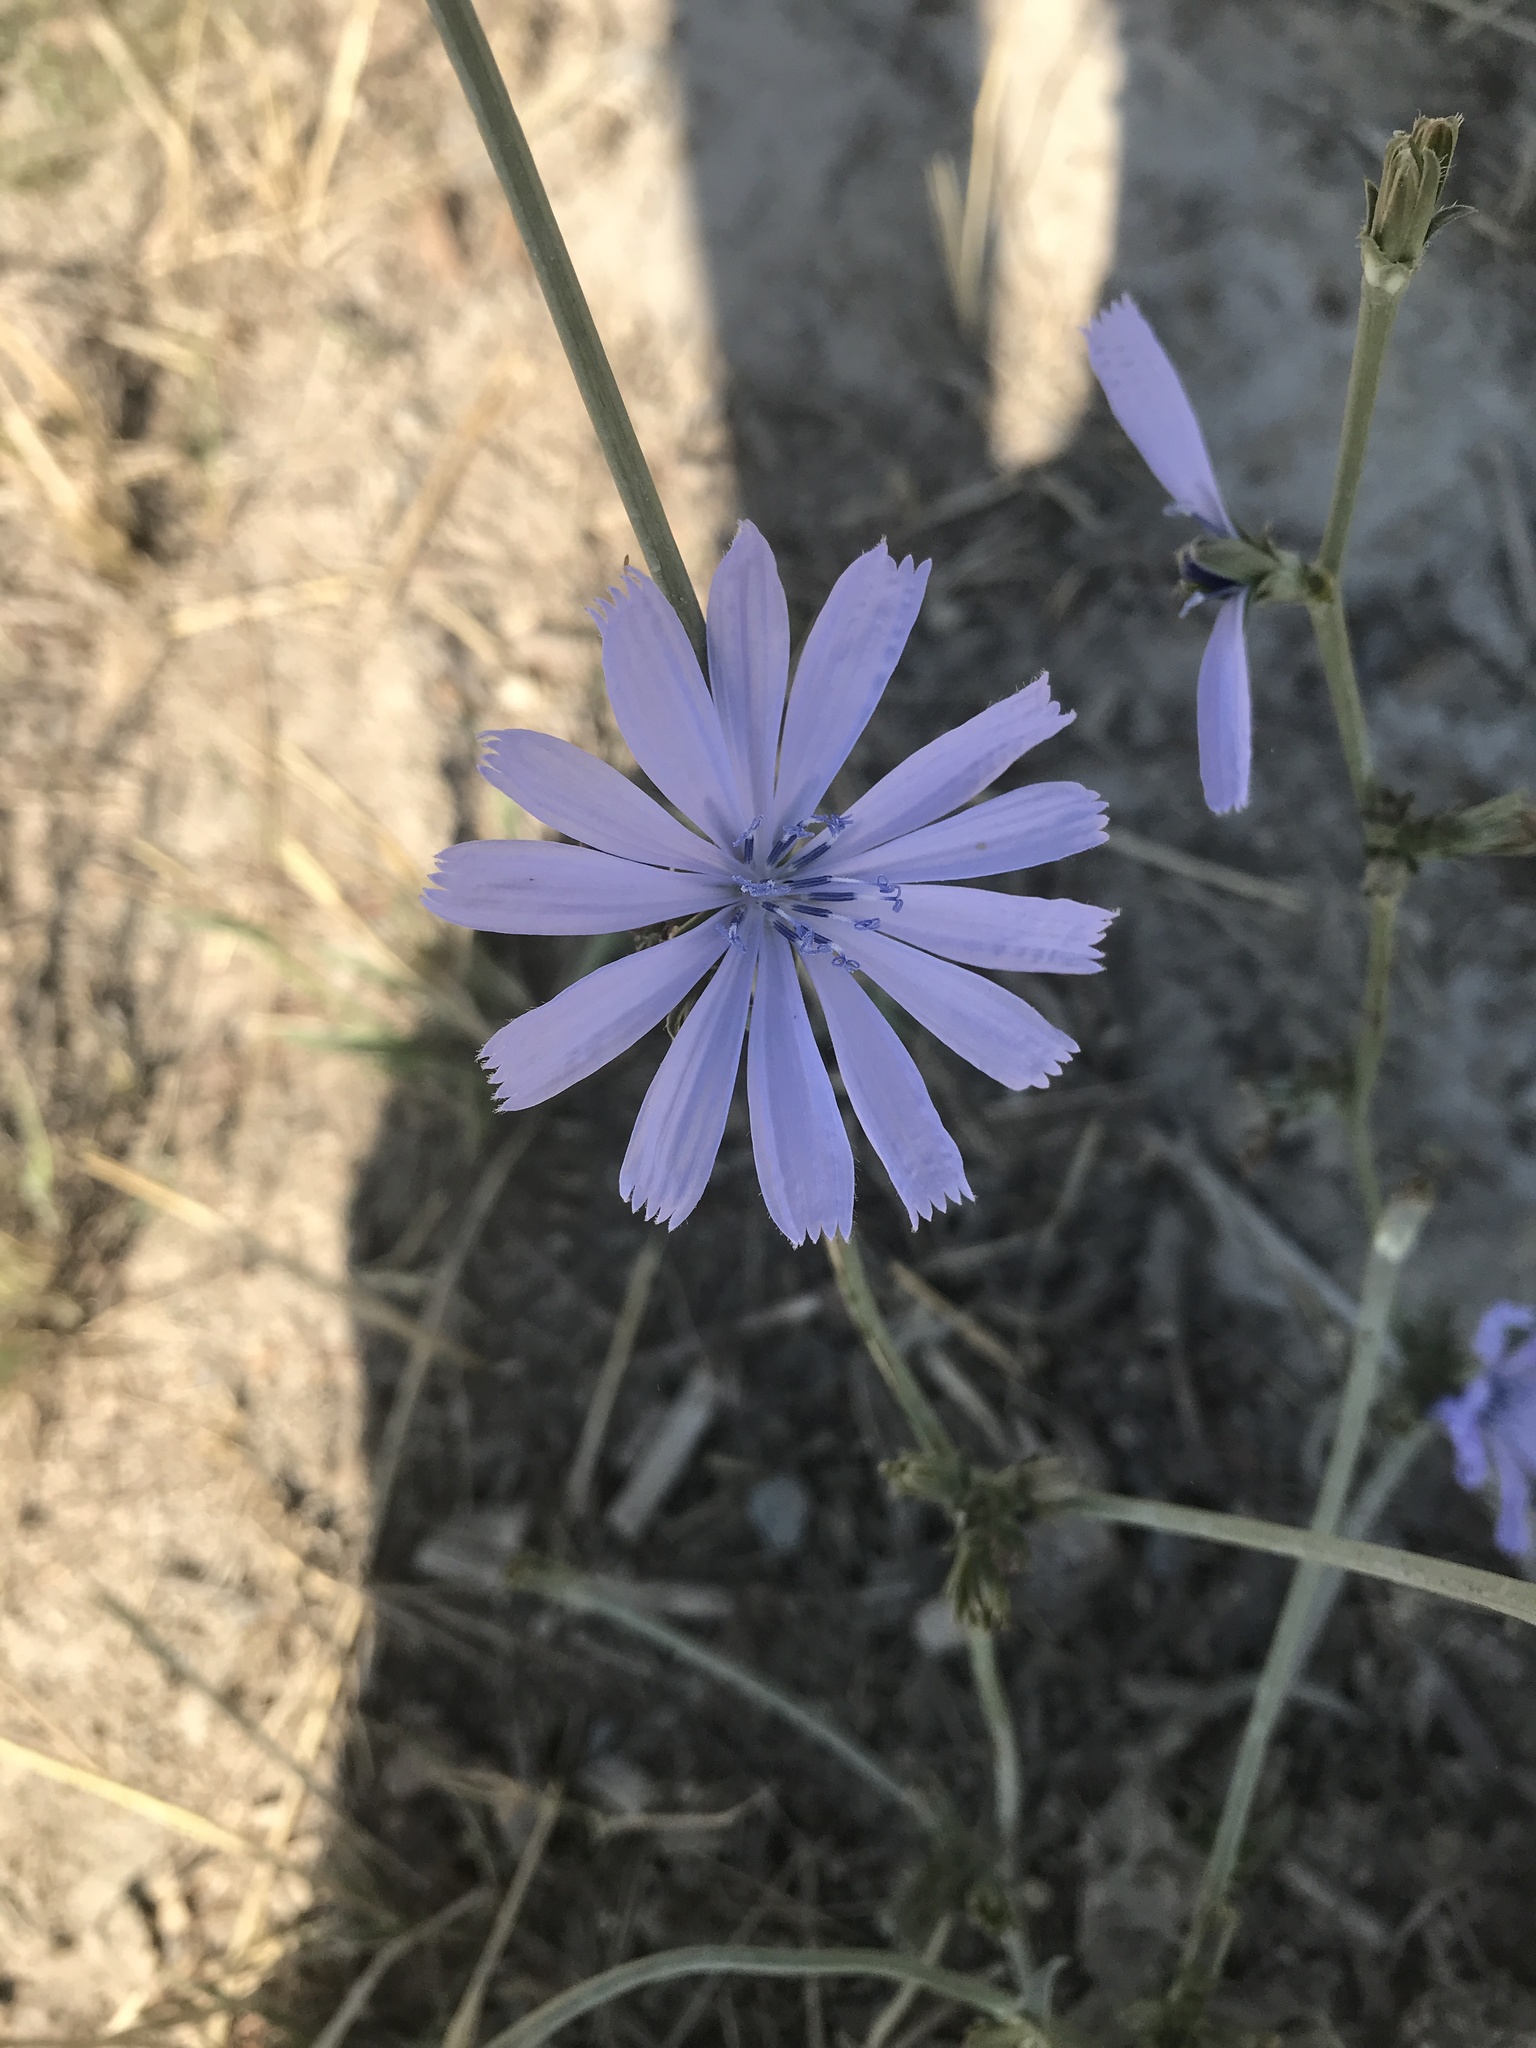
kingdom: Plantae
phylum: Tracheophyta
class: Magnoliopsida
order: Asterales
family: Asteraceae
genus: Cichorium
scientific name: Cichorium intybus
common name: Chicory
